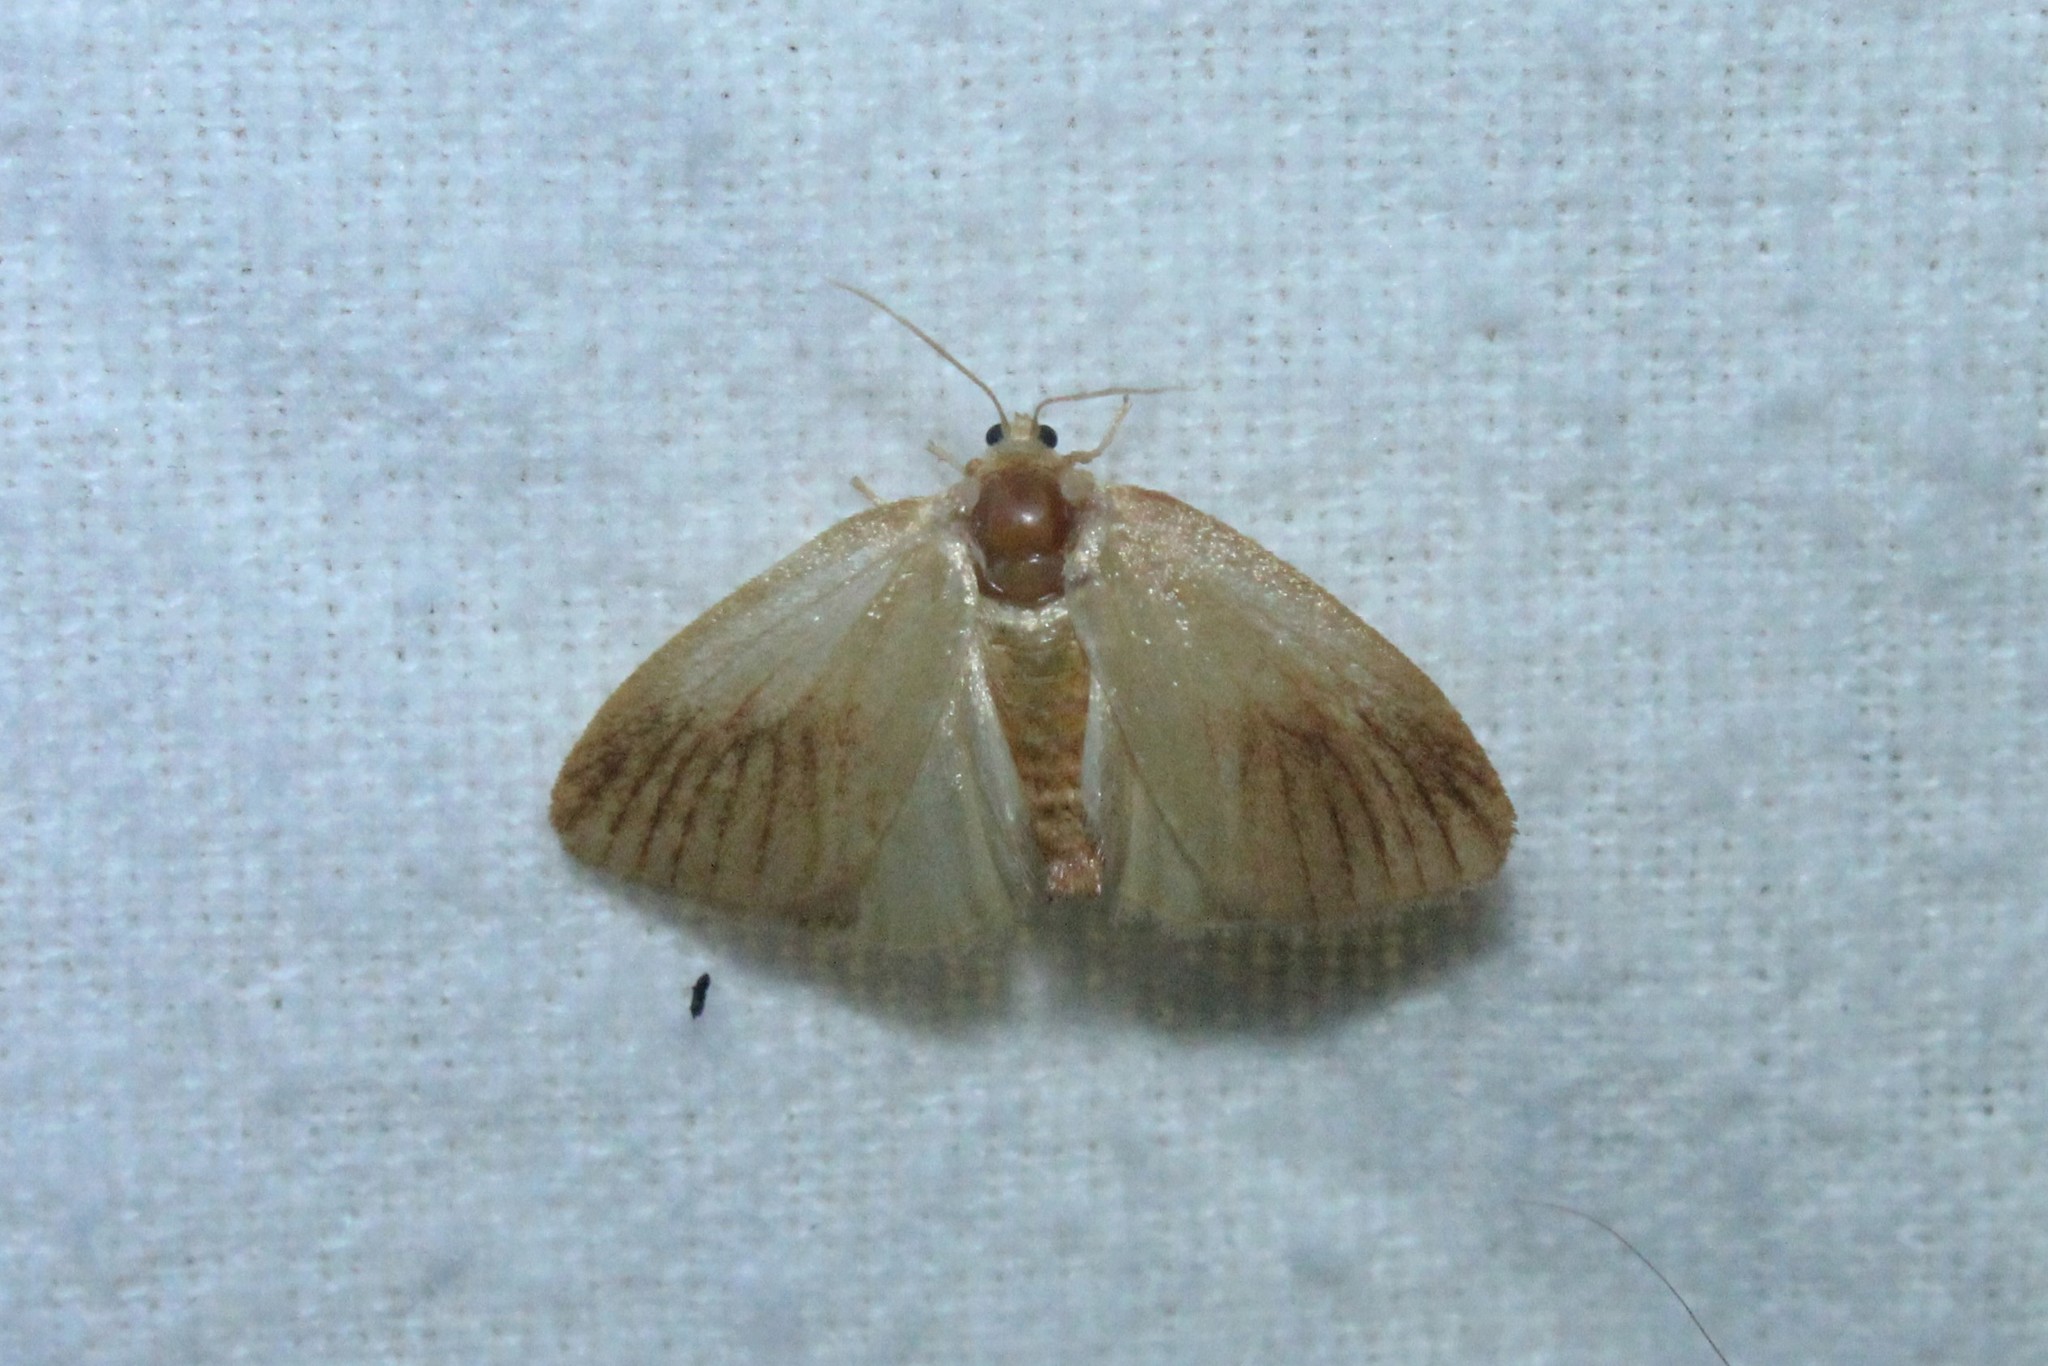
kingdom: Animalia
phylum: Arthropoda
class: Insecta
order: Lepidoptera
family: Limacodidae
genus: Tortricidia
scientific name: Tortricidia testacea
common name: Early button slug moth
